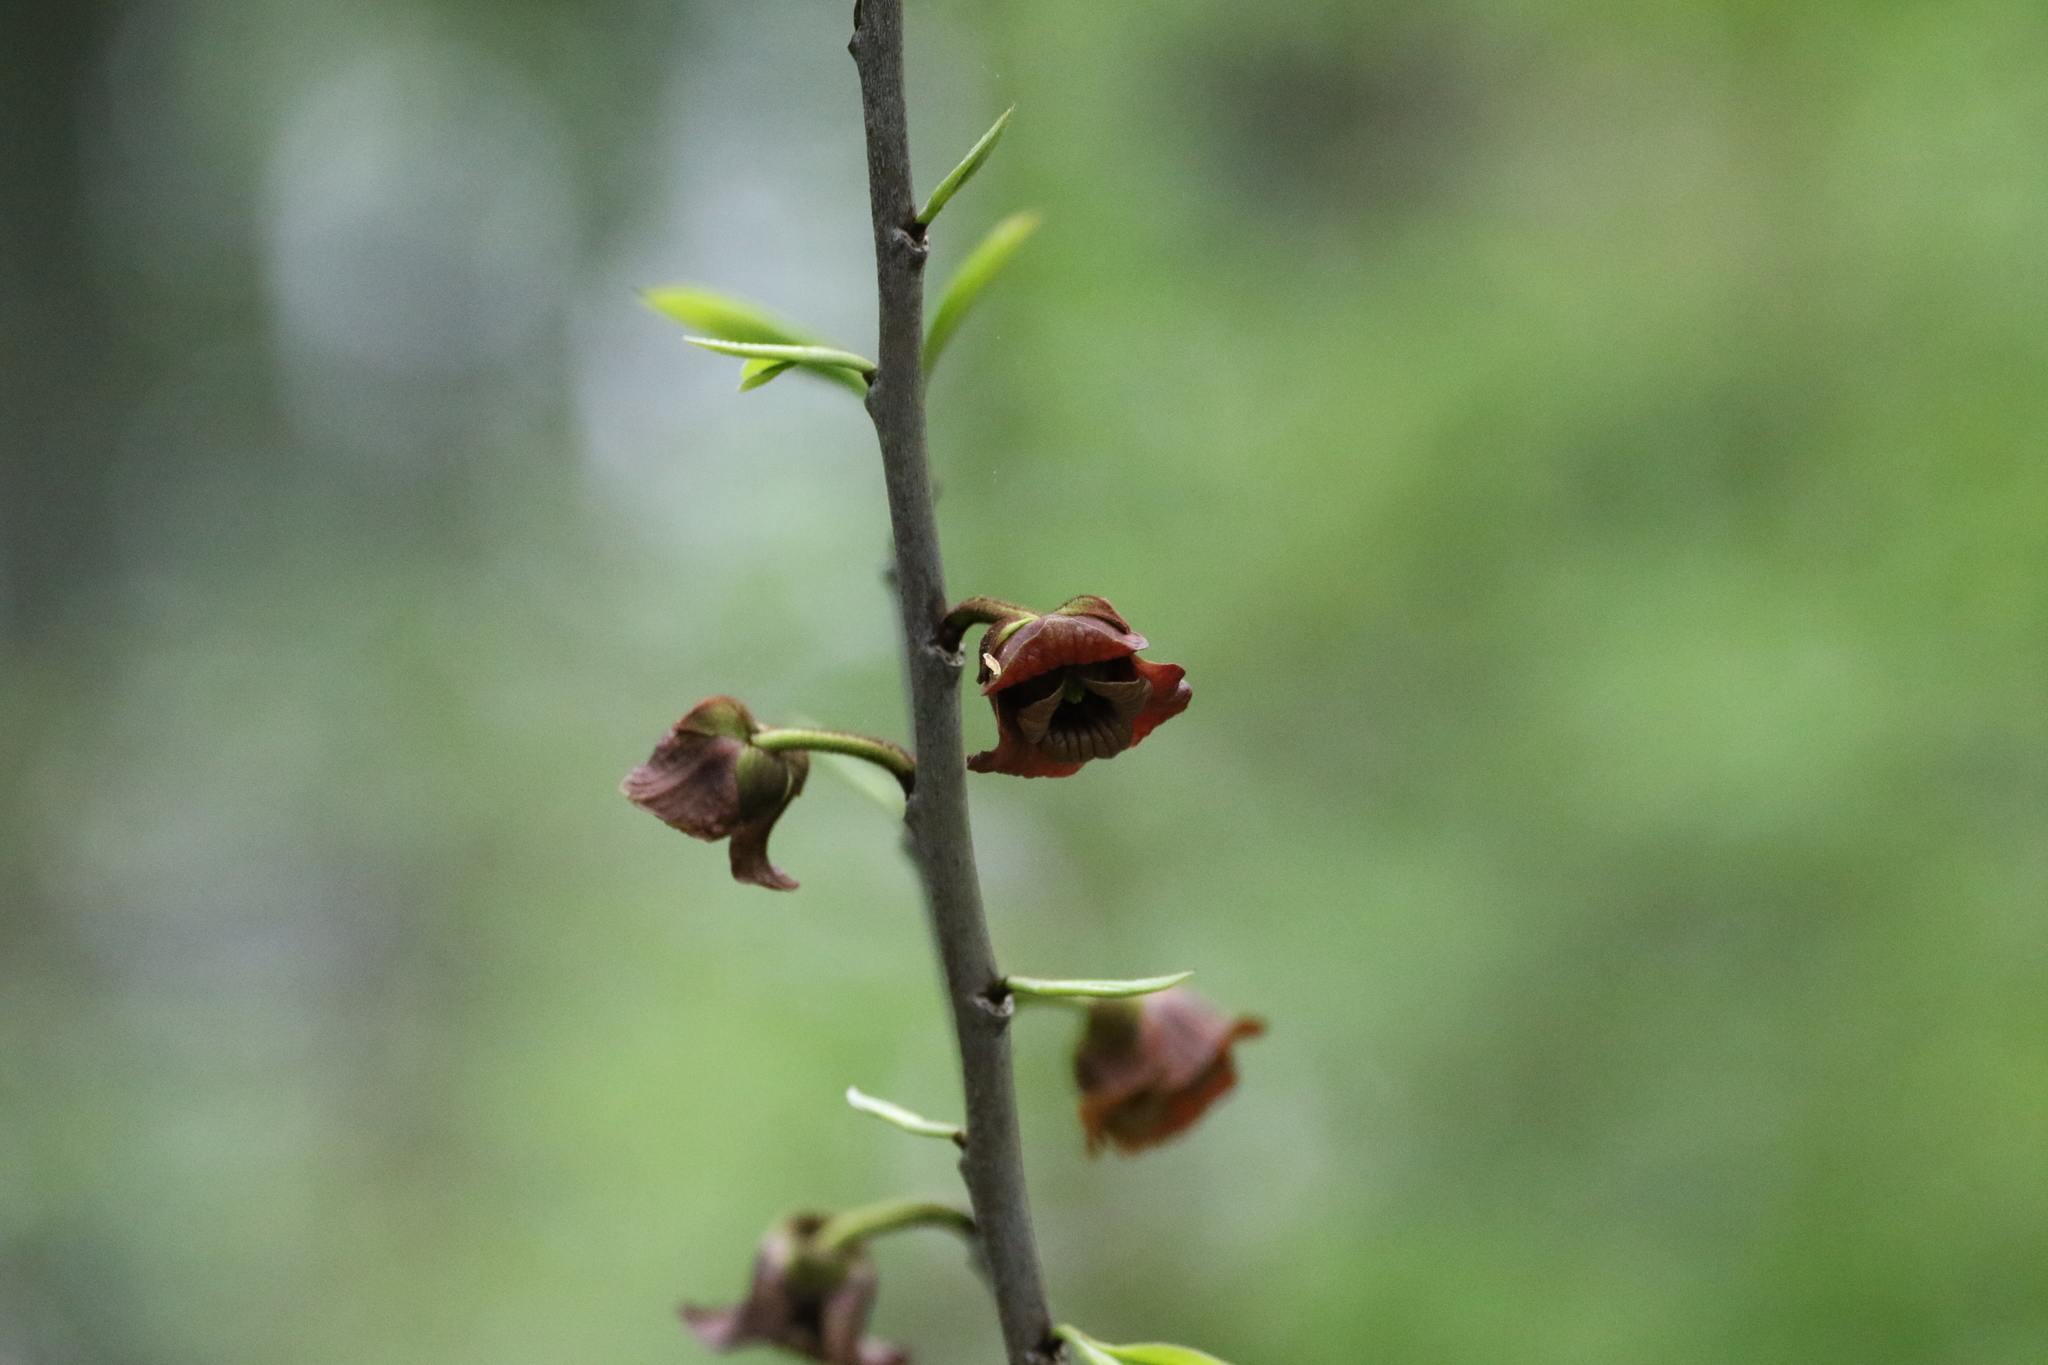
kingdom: Plantae
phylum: Tracheophyta
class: Magnoliopsida
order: Magnoliales
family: Annonaceae
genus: Asimina
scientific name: Asimina triloba
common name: Dog-banana
